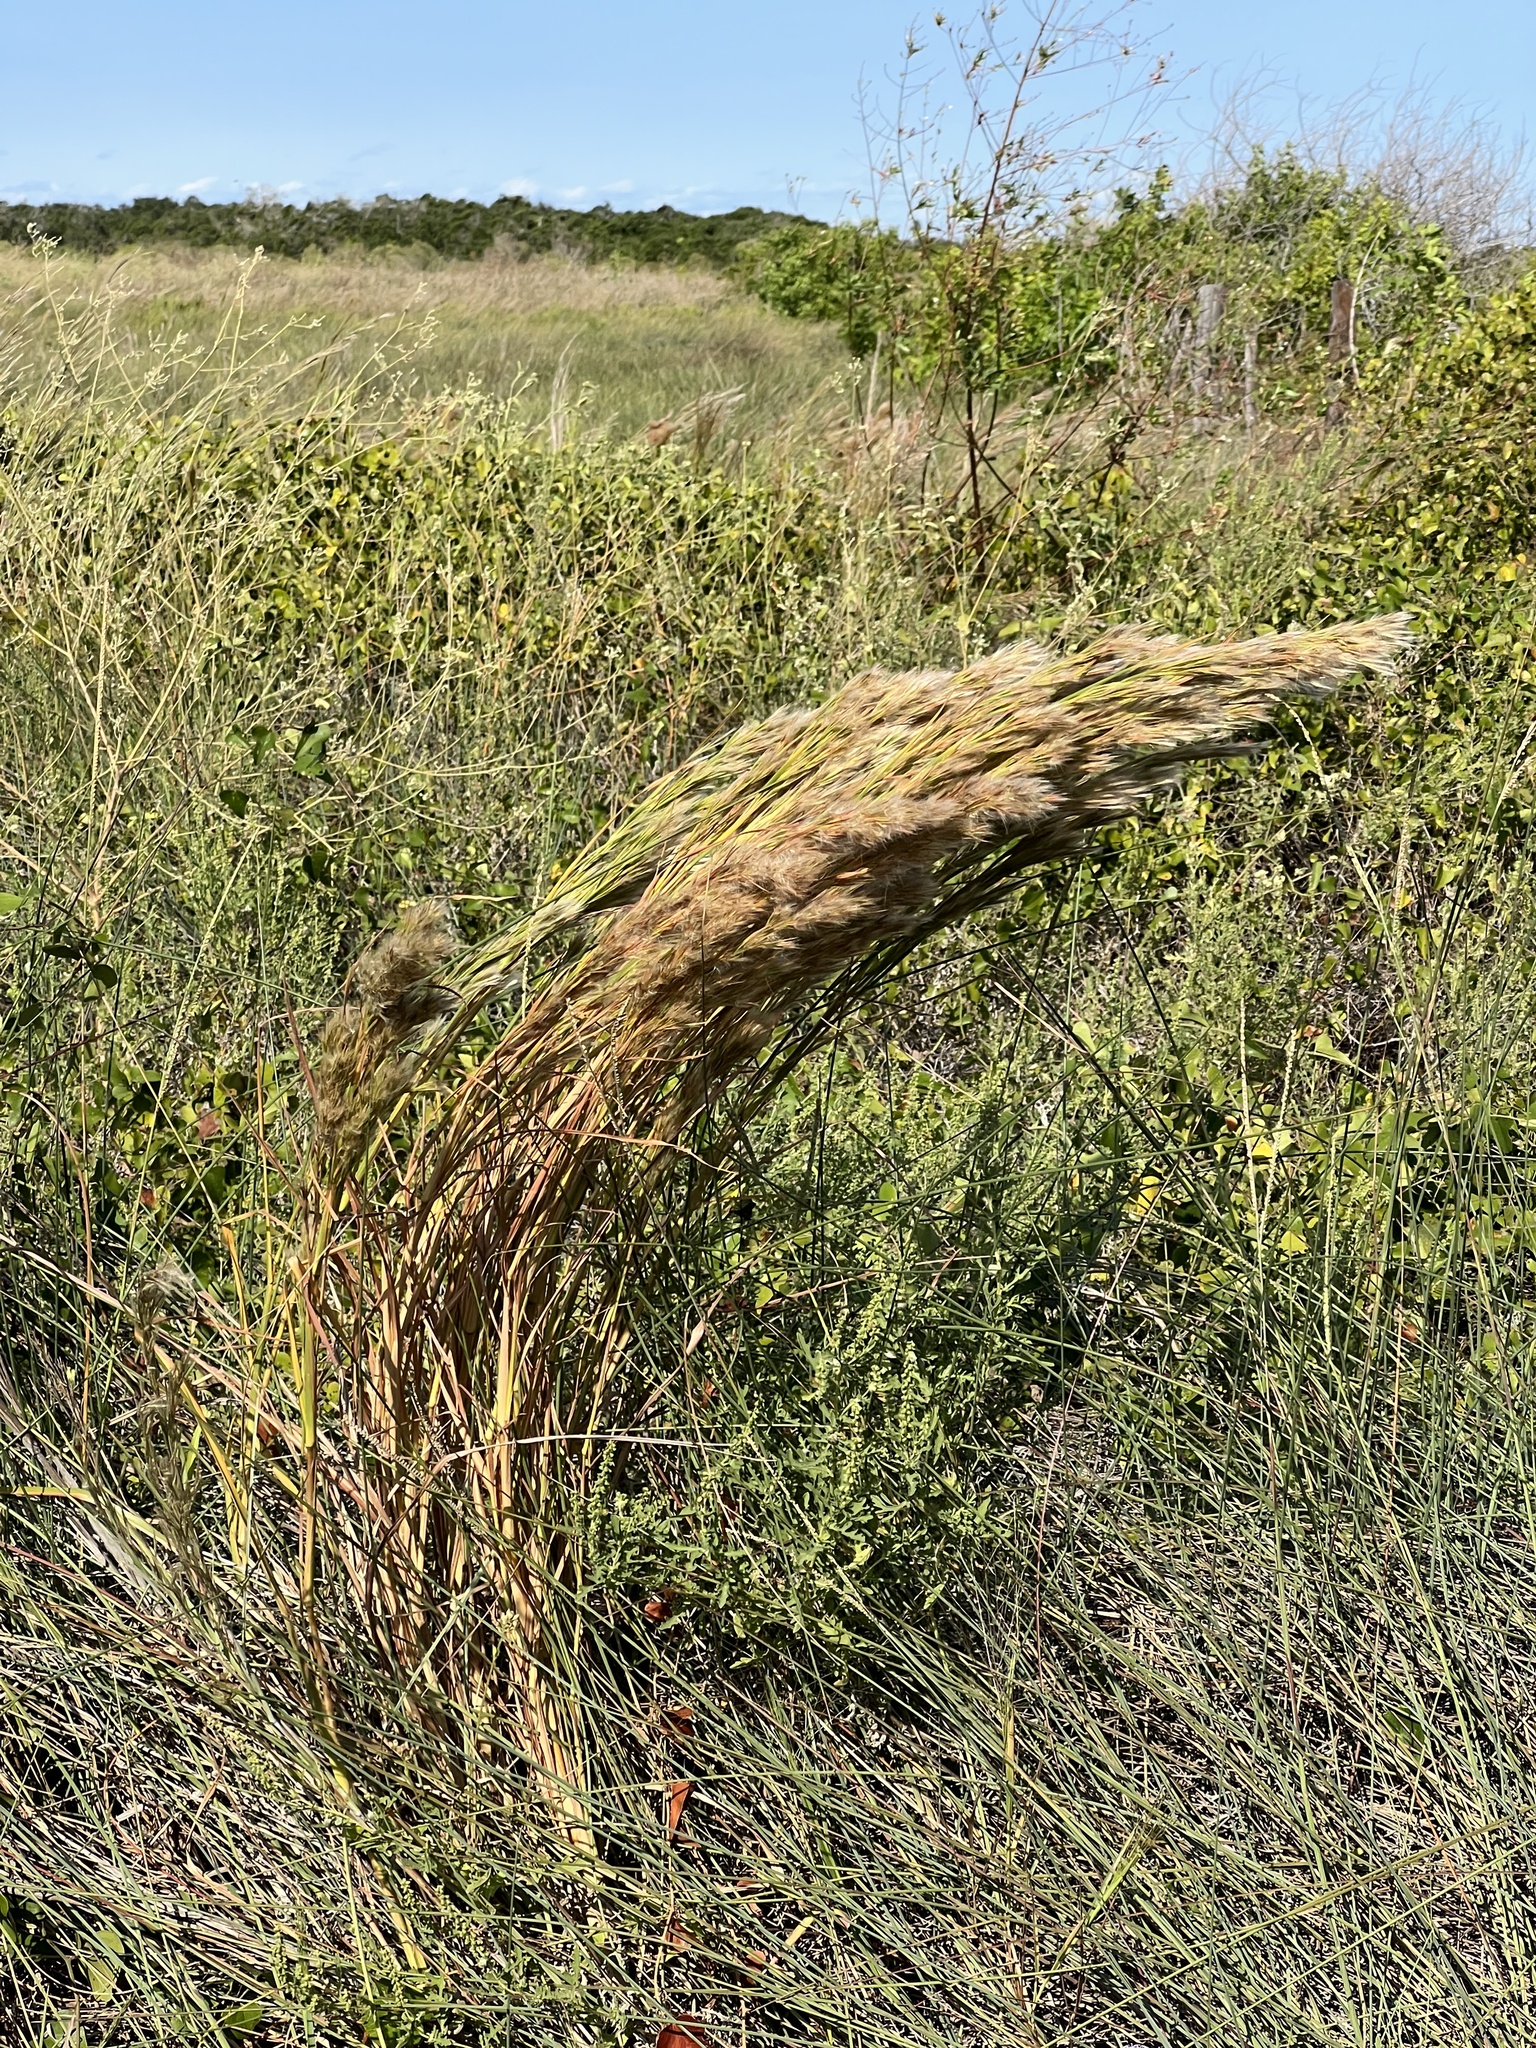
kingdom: Plantae
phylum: Tracheophyta
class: Liliopsida
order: Poales
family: Poaceae
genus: Andropogon
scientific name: Andropogon tenuispatheus
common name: Bushy bluestem
